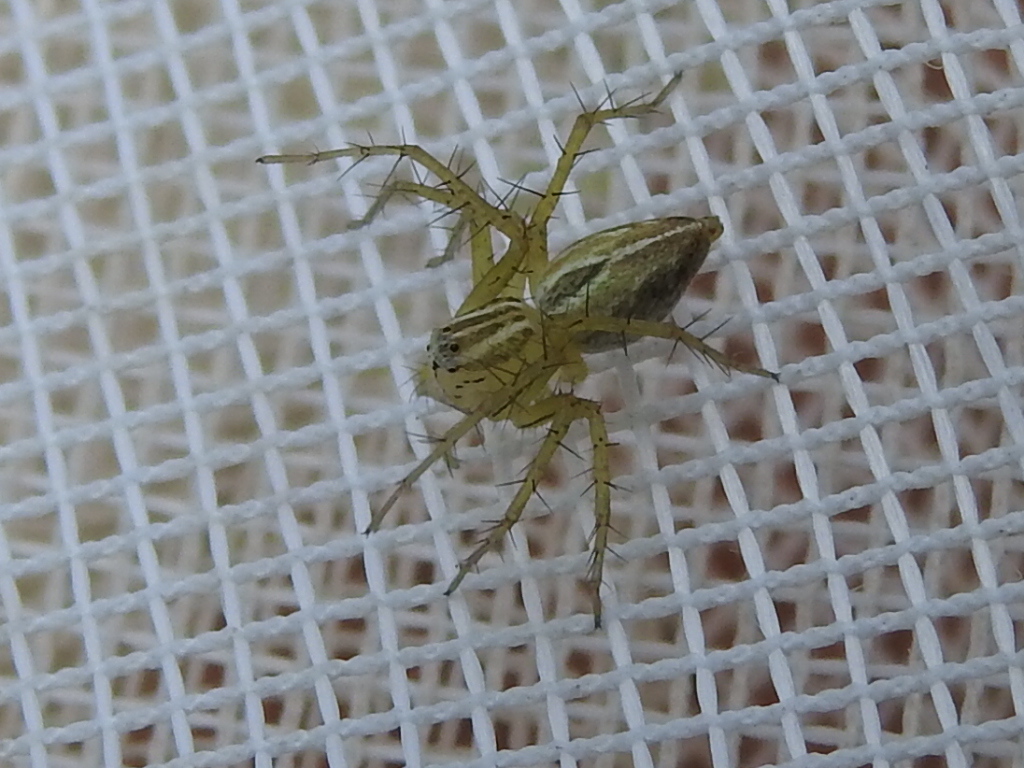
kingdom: Animalia
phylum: Arthropoda
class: Arachnida
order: Araneae
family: Oxyopidae
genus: Oxyopes
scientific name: Oxyopes salticus
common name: Lynx spiders
